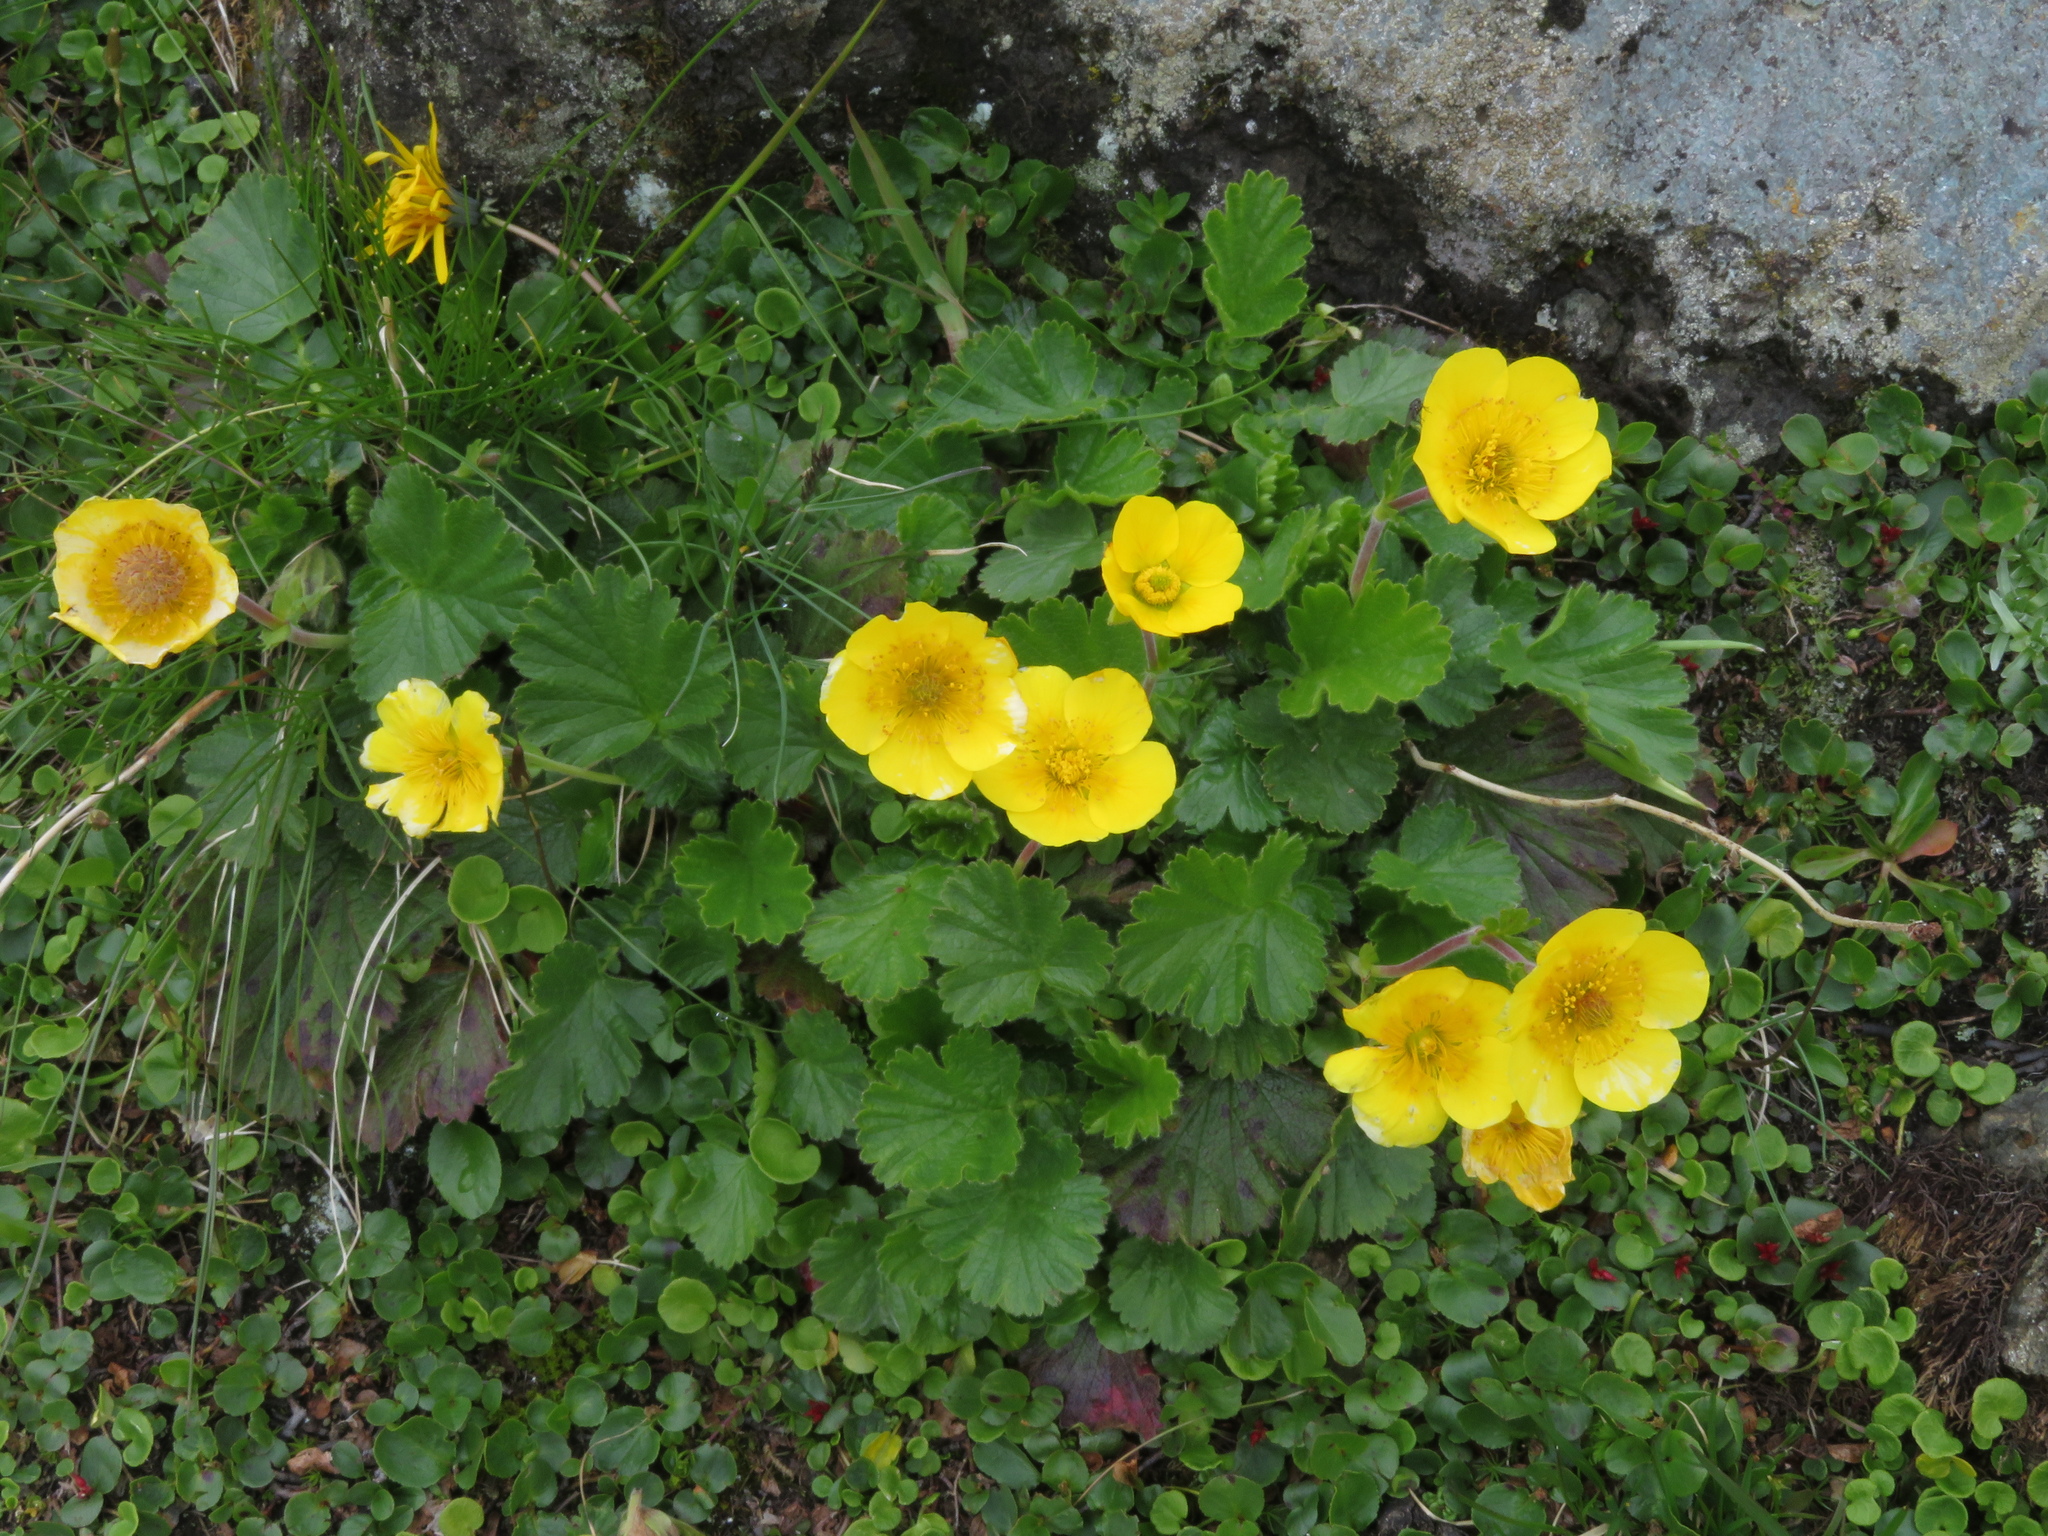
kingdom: Plantae
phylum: Tracheophyta
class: Magnoliopsida
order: Rosales
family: Rosaceae
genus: Geum
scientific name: Geum montanum
